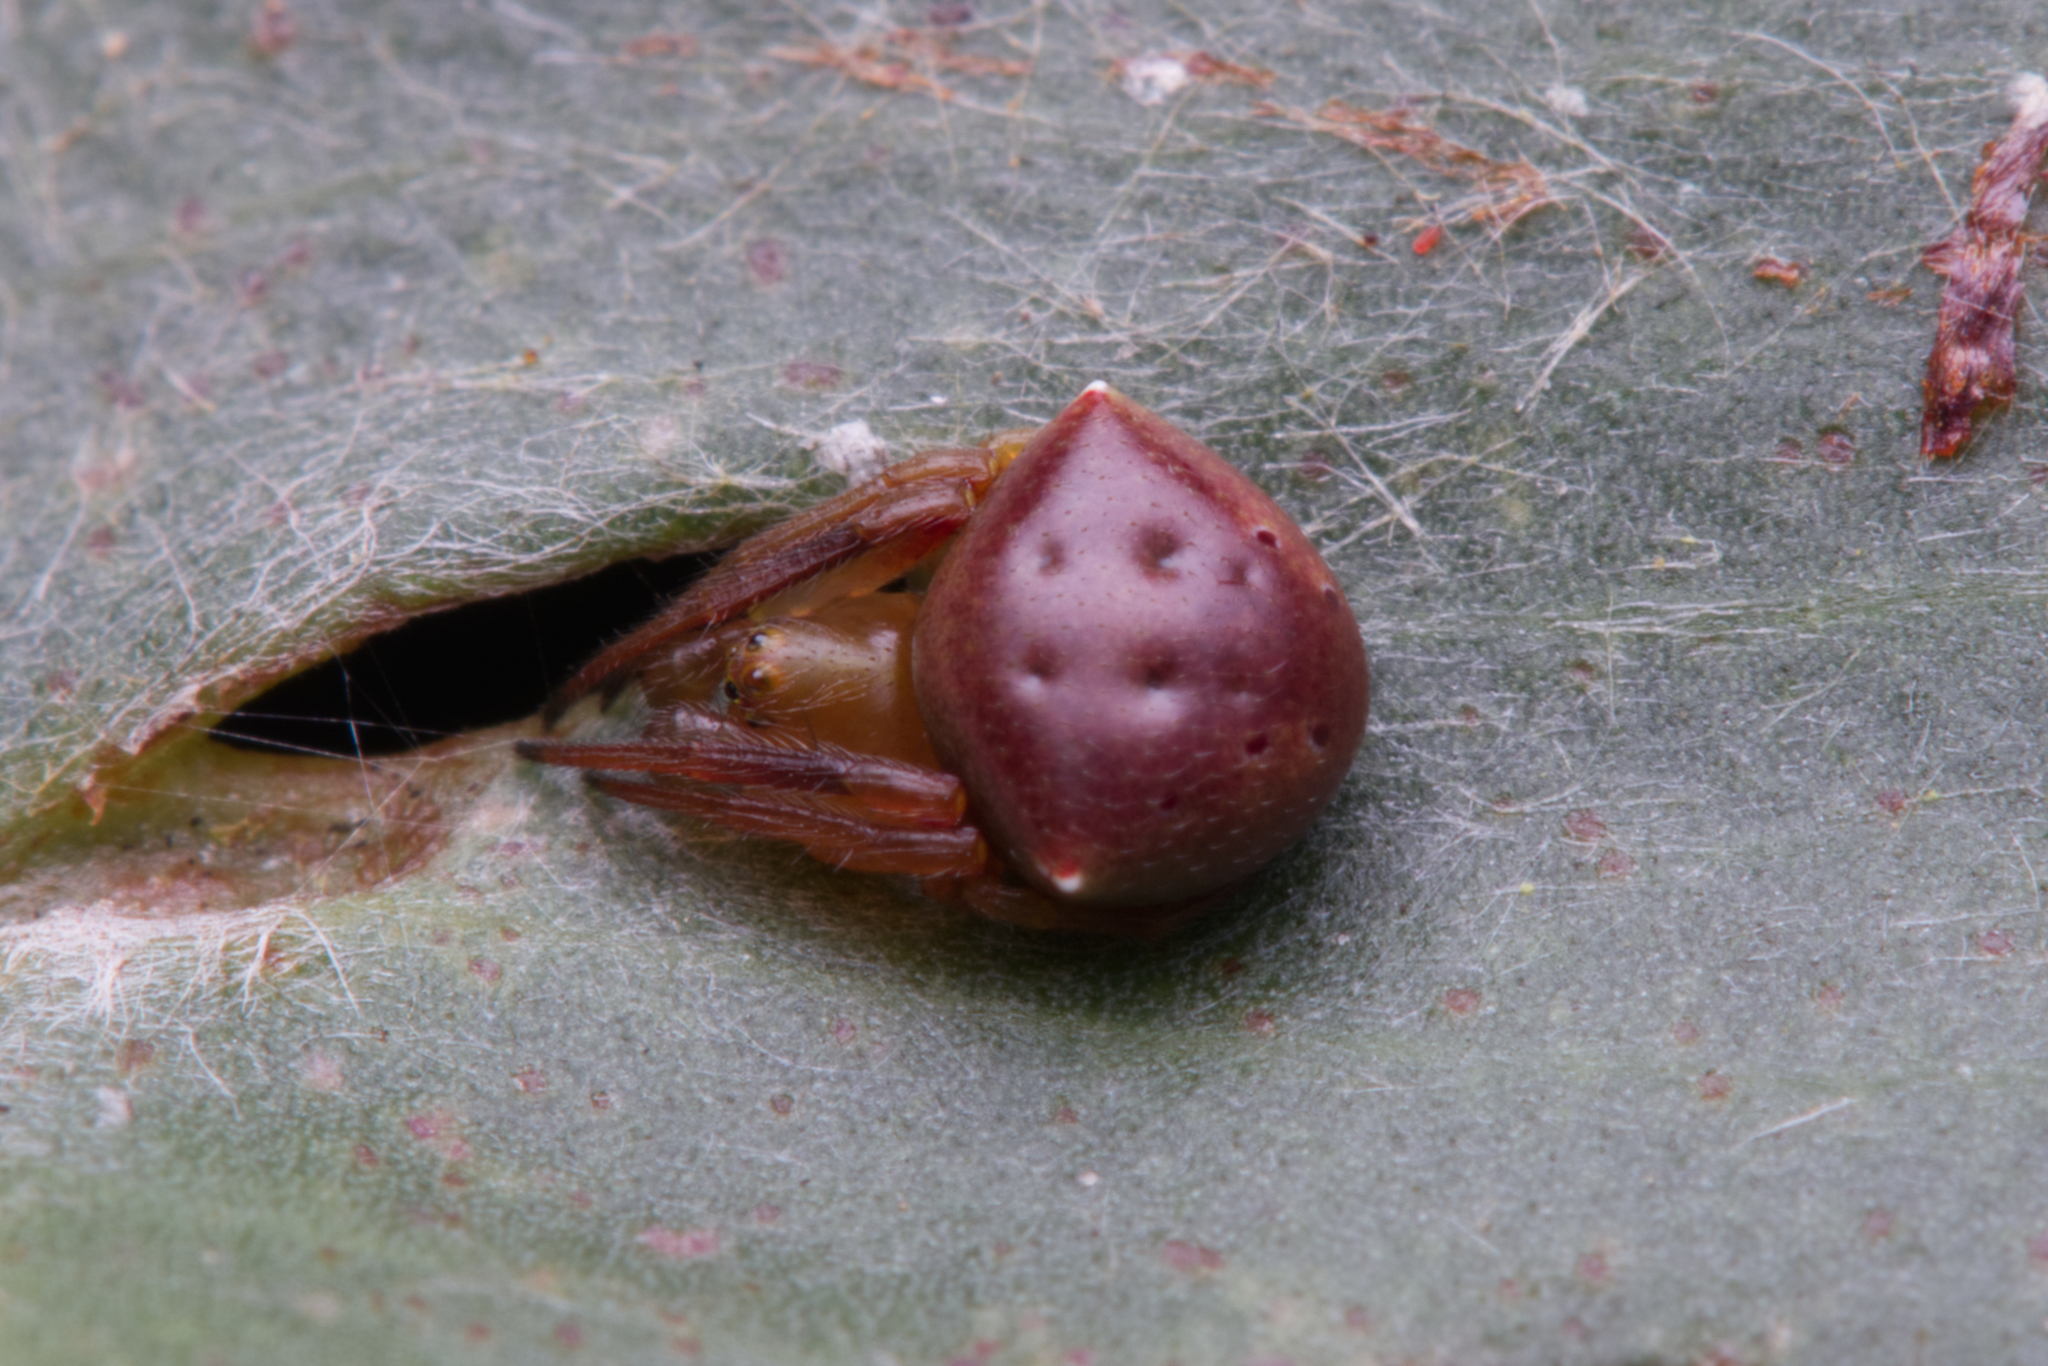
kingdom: Animalia
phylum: Arthropoda
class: Arachnida
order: Araneae
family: Araneidae
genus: Araneus
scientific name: Araneus cyrtarachnoides
